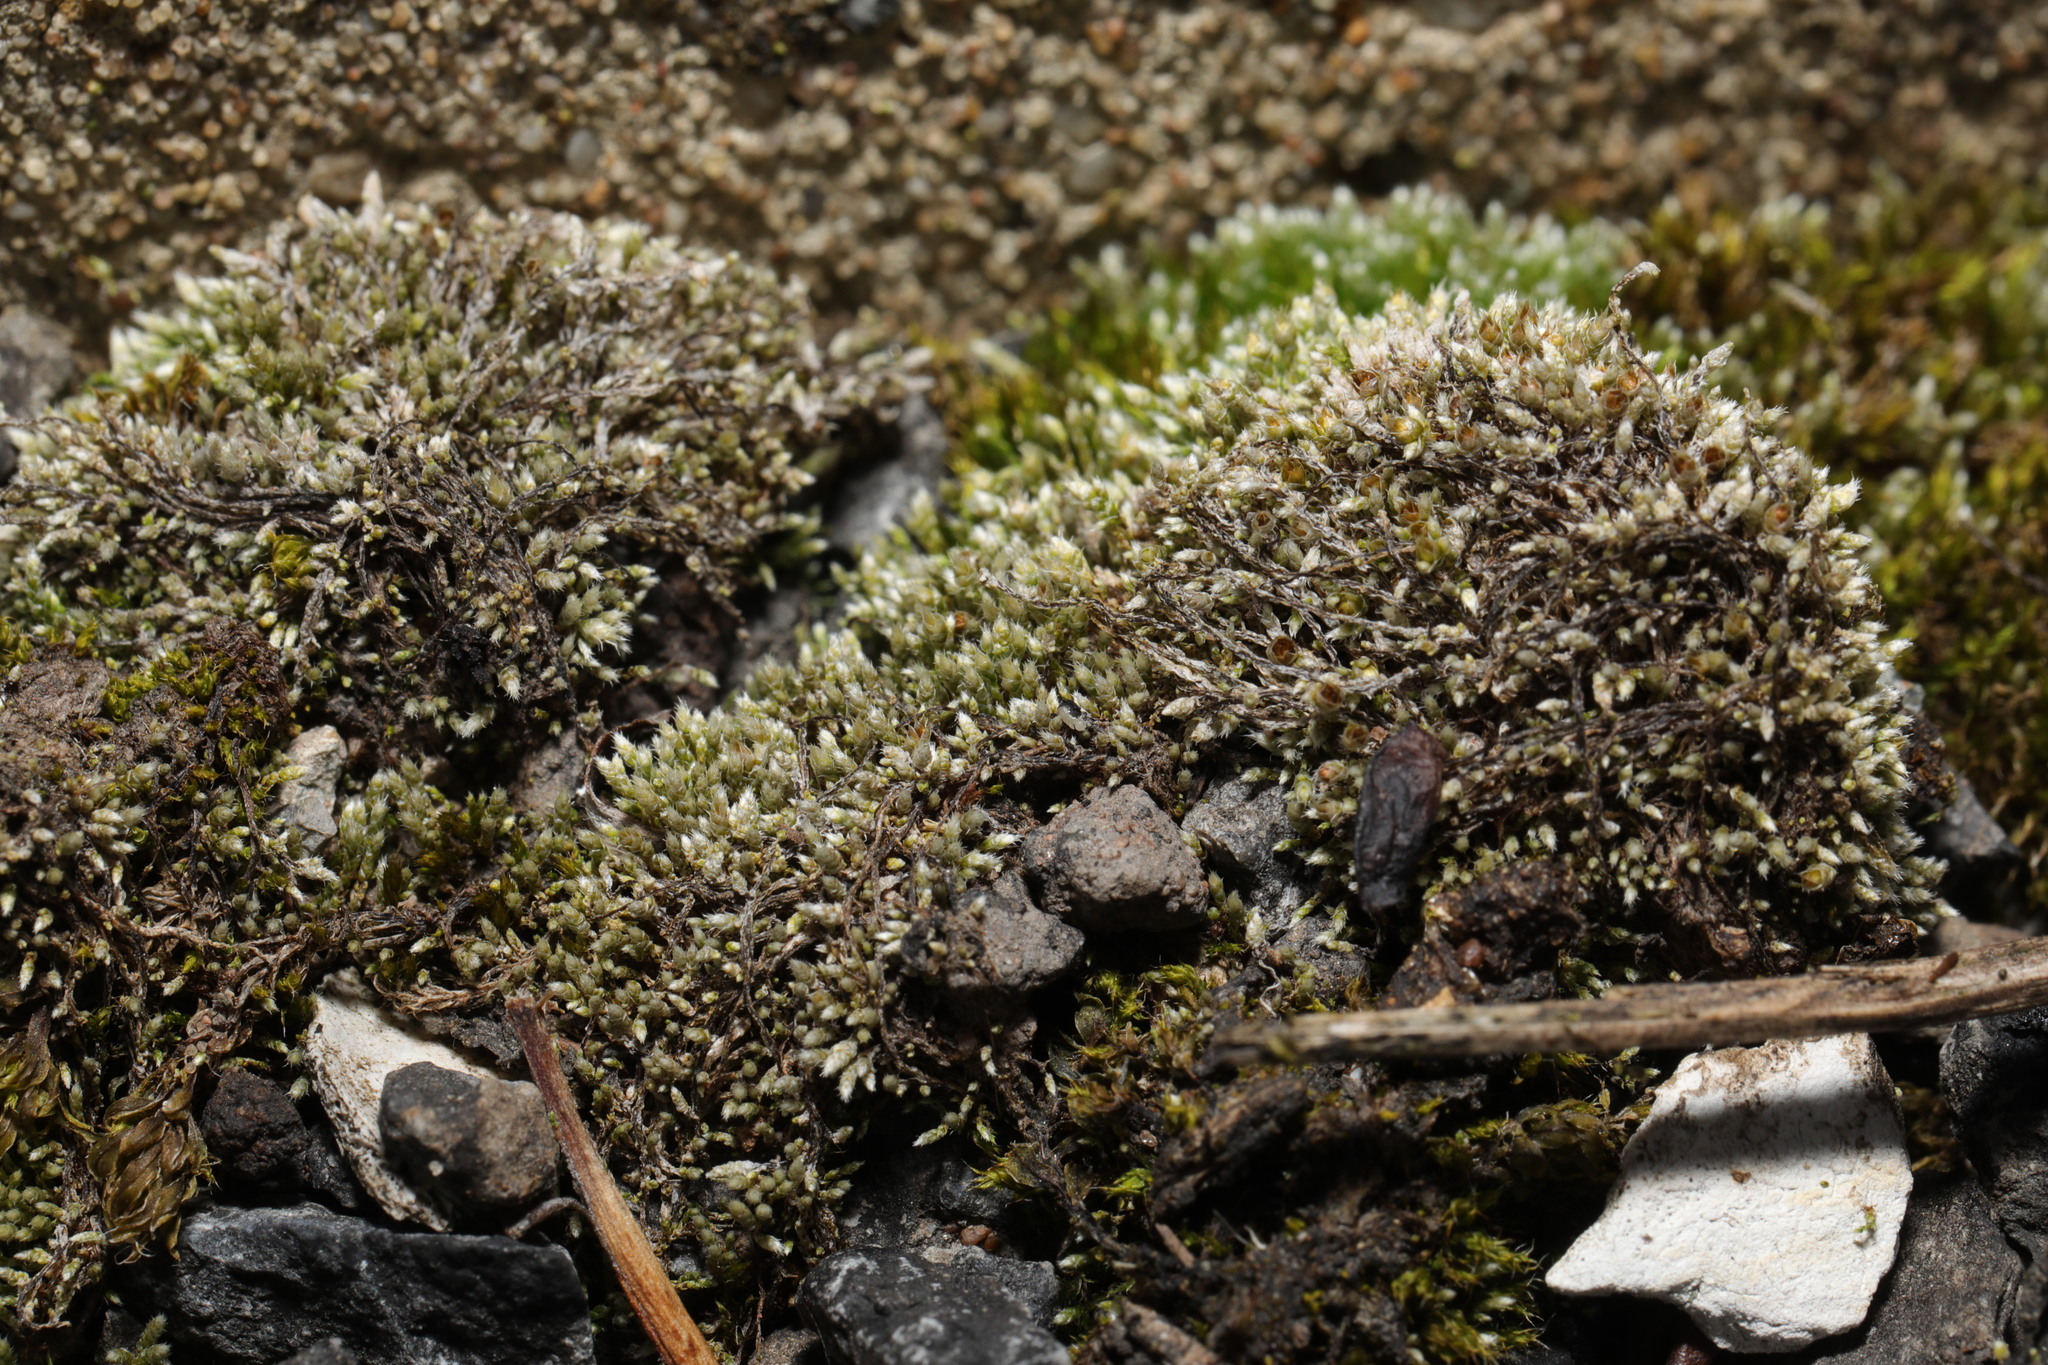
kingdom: Plantae
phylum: Bryophyta
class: Bryopsida
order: Bryales
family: Bryaceae
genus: Bryum
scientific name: Bryum argenteum
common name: Silver-moss
